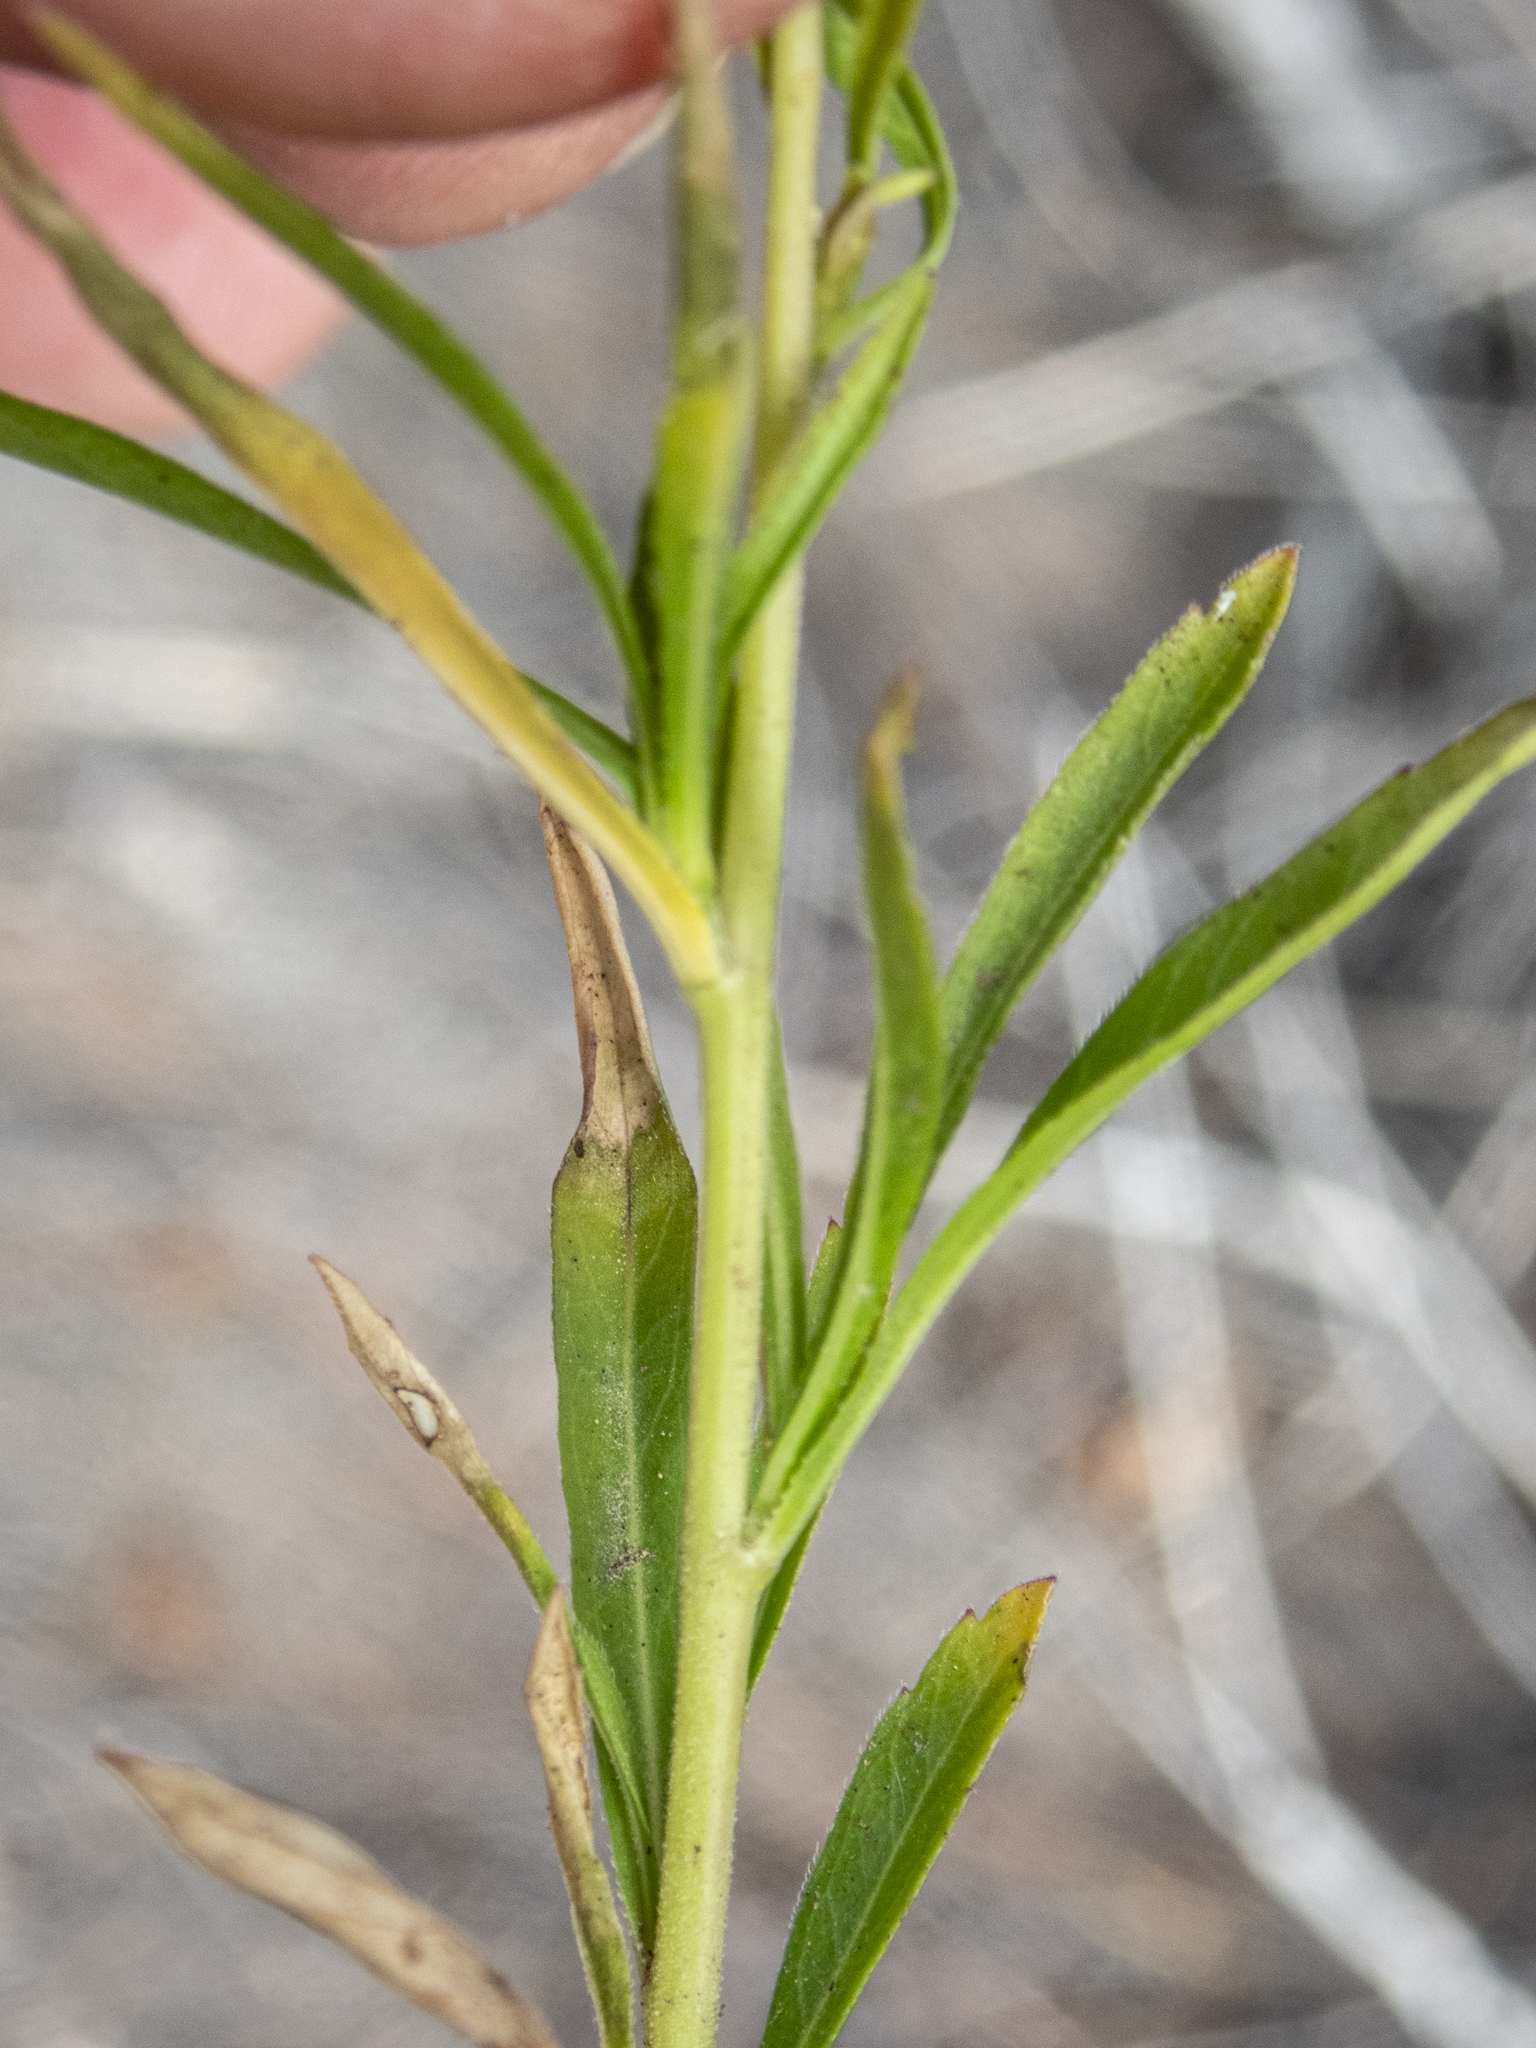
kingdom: Plantae
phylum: Tracheophyta
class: Magnoliopsida
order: Brassicales
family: Brassicaceae
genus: Lepidium
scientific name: Lepidium virginicum
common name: Least pepperwort
